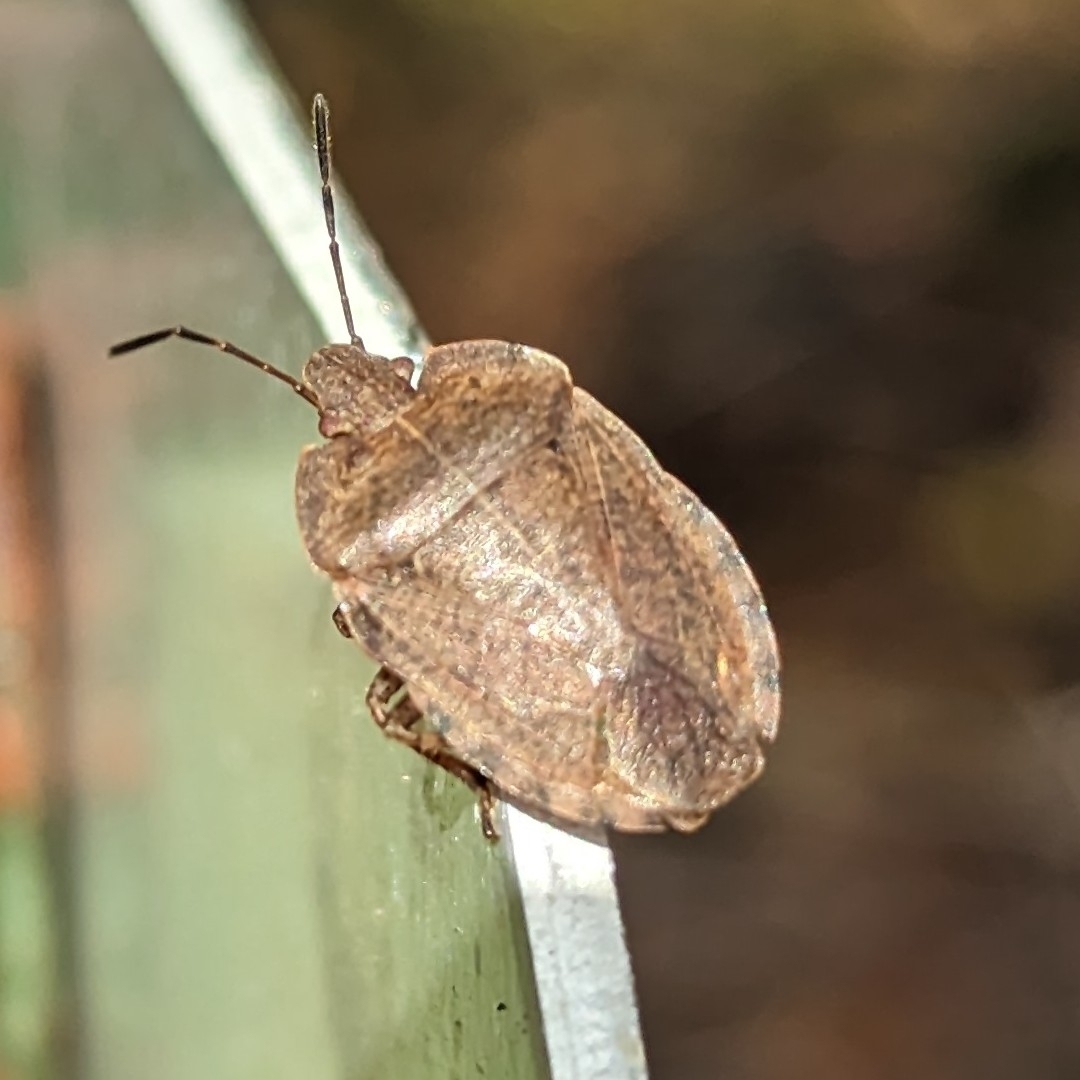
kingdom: Animalia
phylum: Arthropoda
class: Insecta
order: Hemiptera
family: Pentatomidae
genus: Menecles
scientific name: Menecles insertus
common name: Elf shoe stink bug
